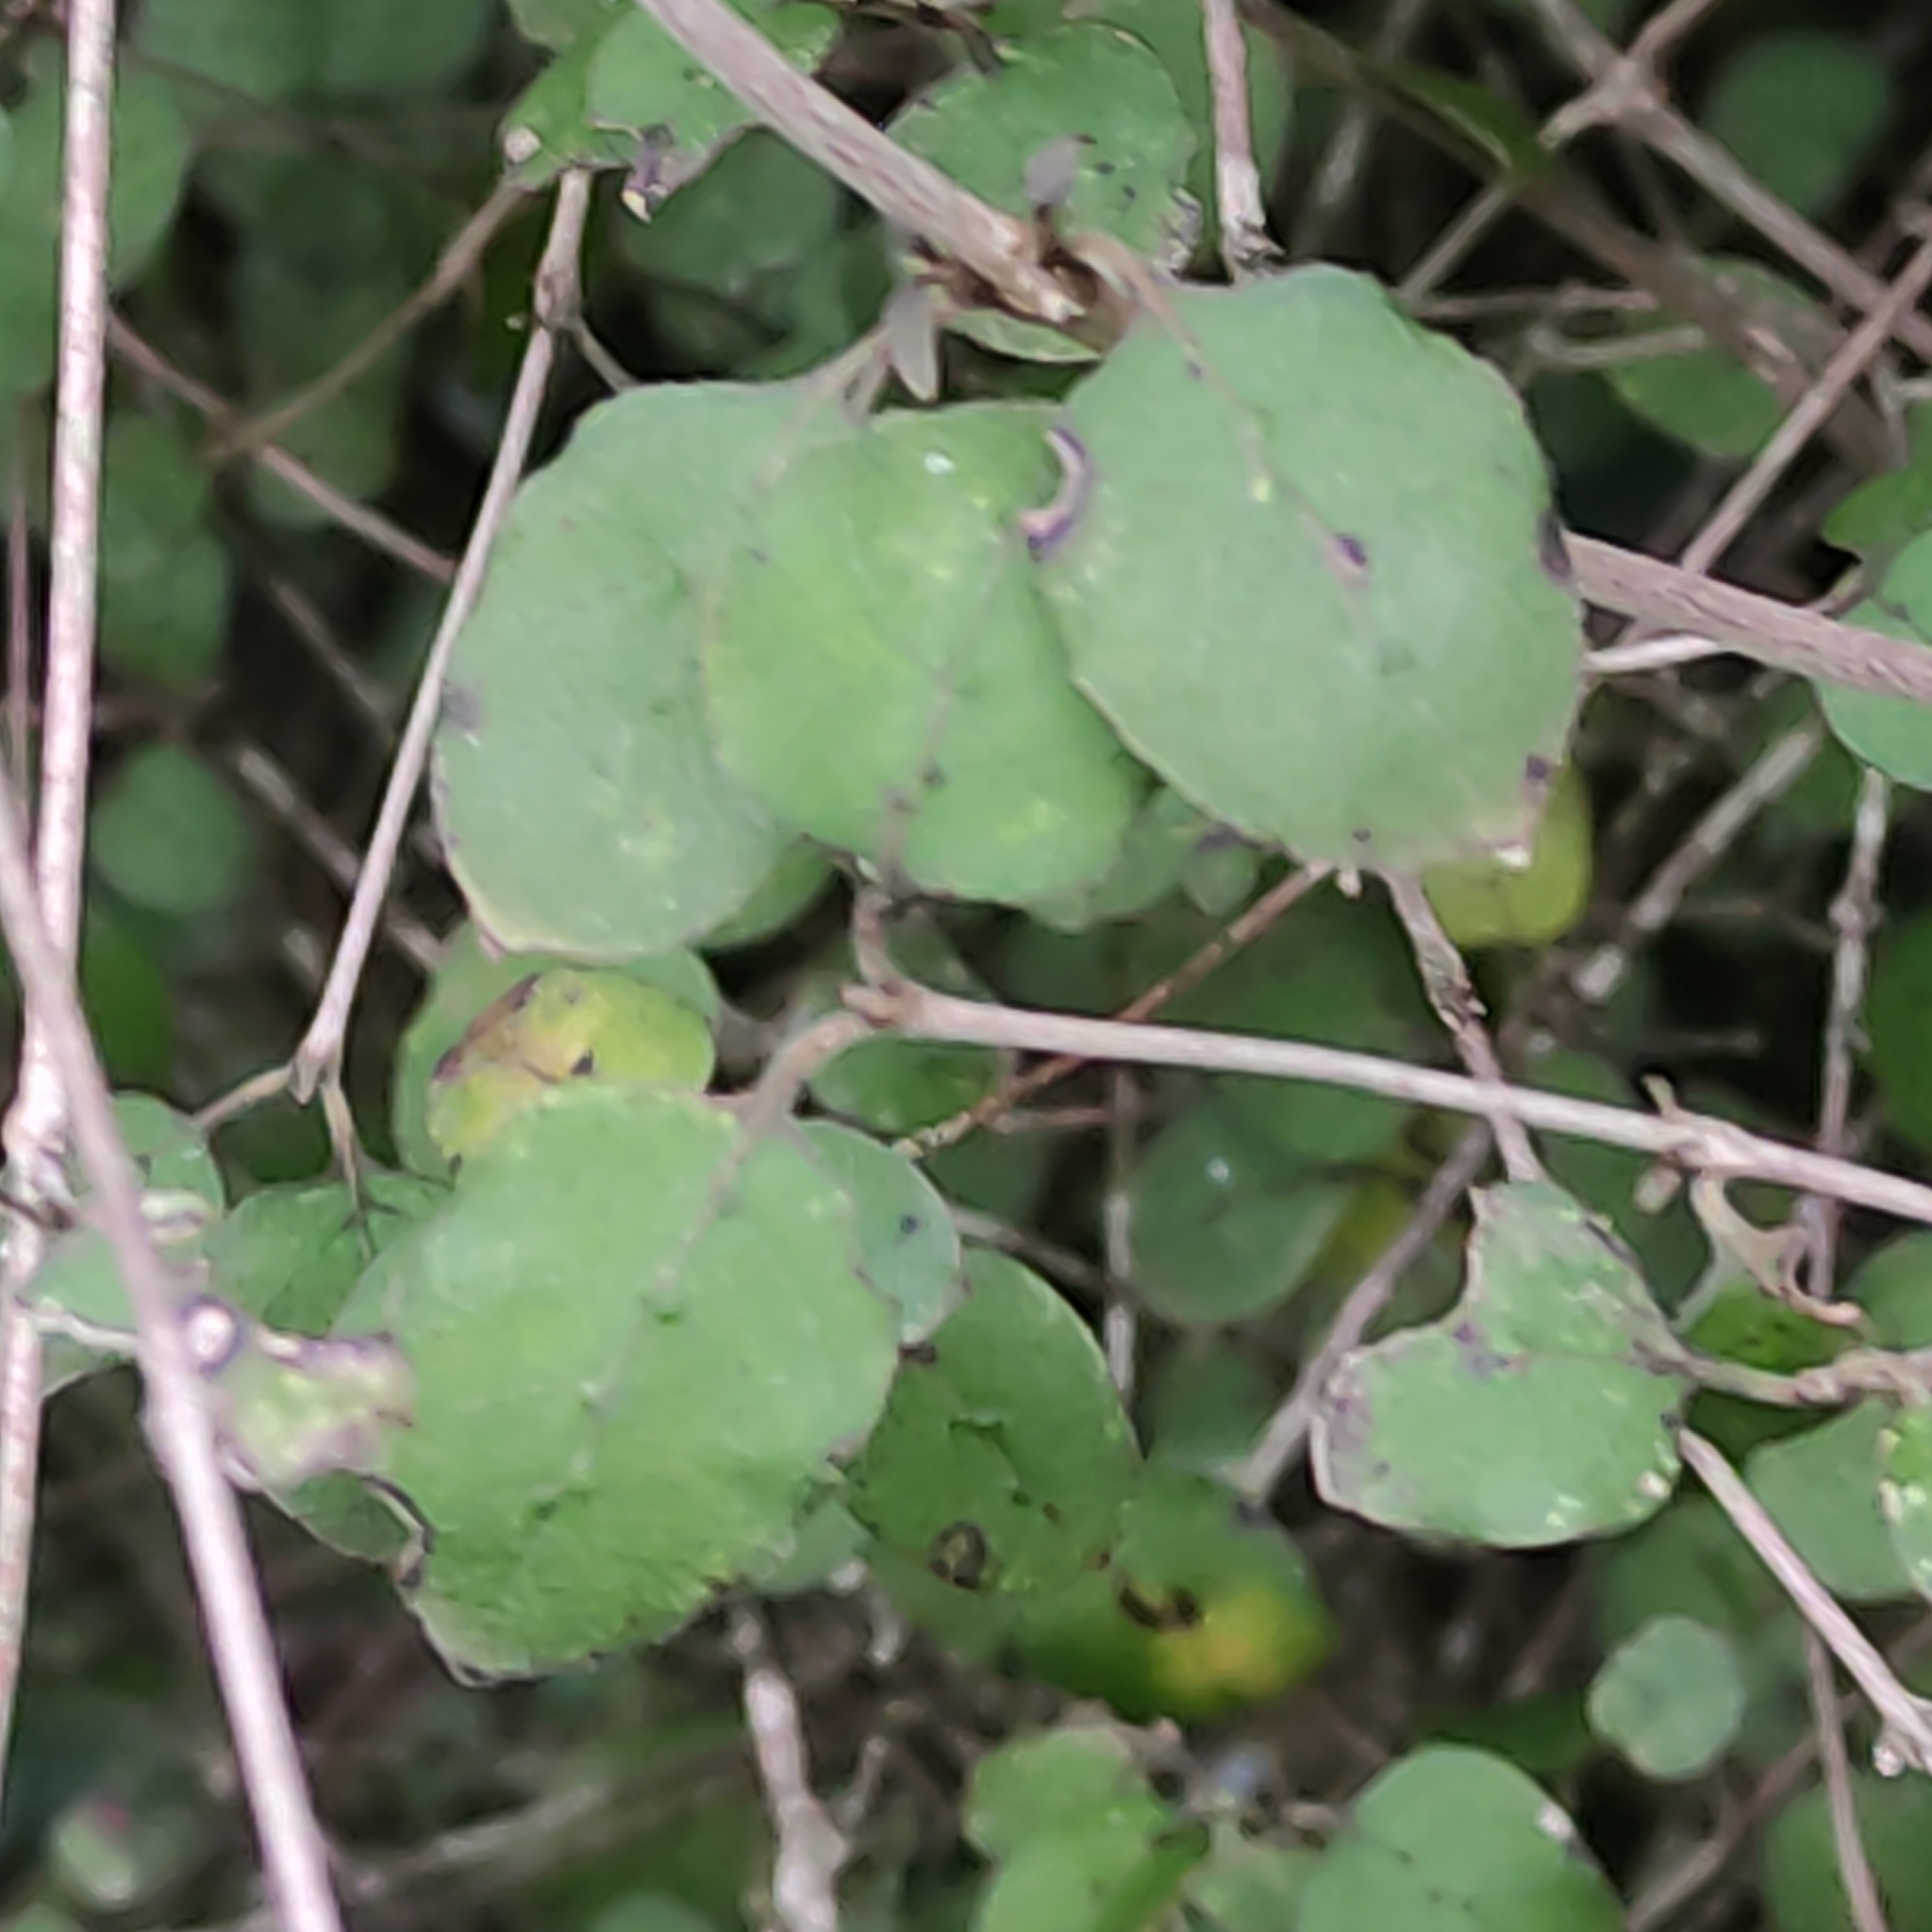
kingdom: Plantae
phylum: Tracheophyta
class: Magnoliopsida
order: Gentianales
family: Rubiaceae
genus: Coprosma
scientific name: Coprosma rotundifolia
